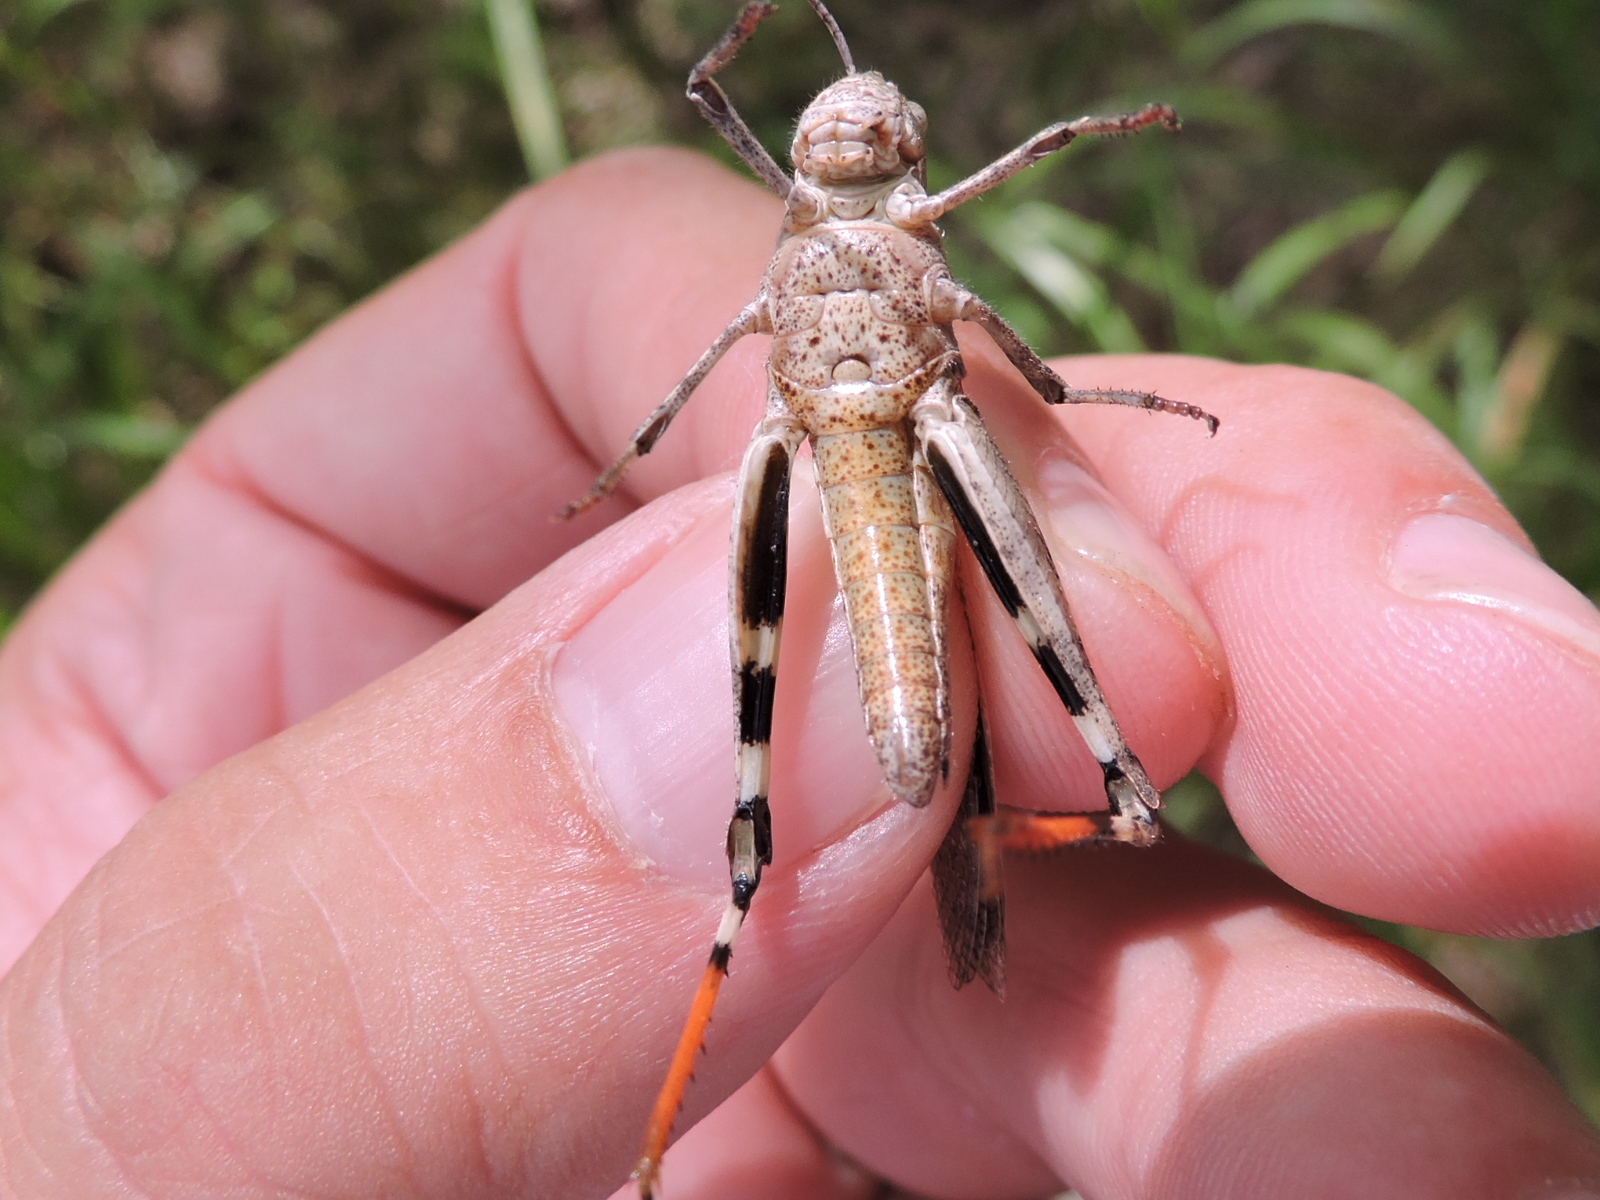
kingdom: Animalia
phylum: Arthropoda
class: Insecta
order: Orthoptera
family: Acrididae
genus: Spharagemon
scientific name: Spharagemon bolli
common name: Boll's grasshopper
